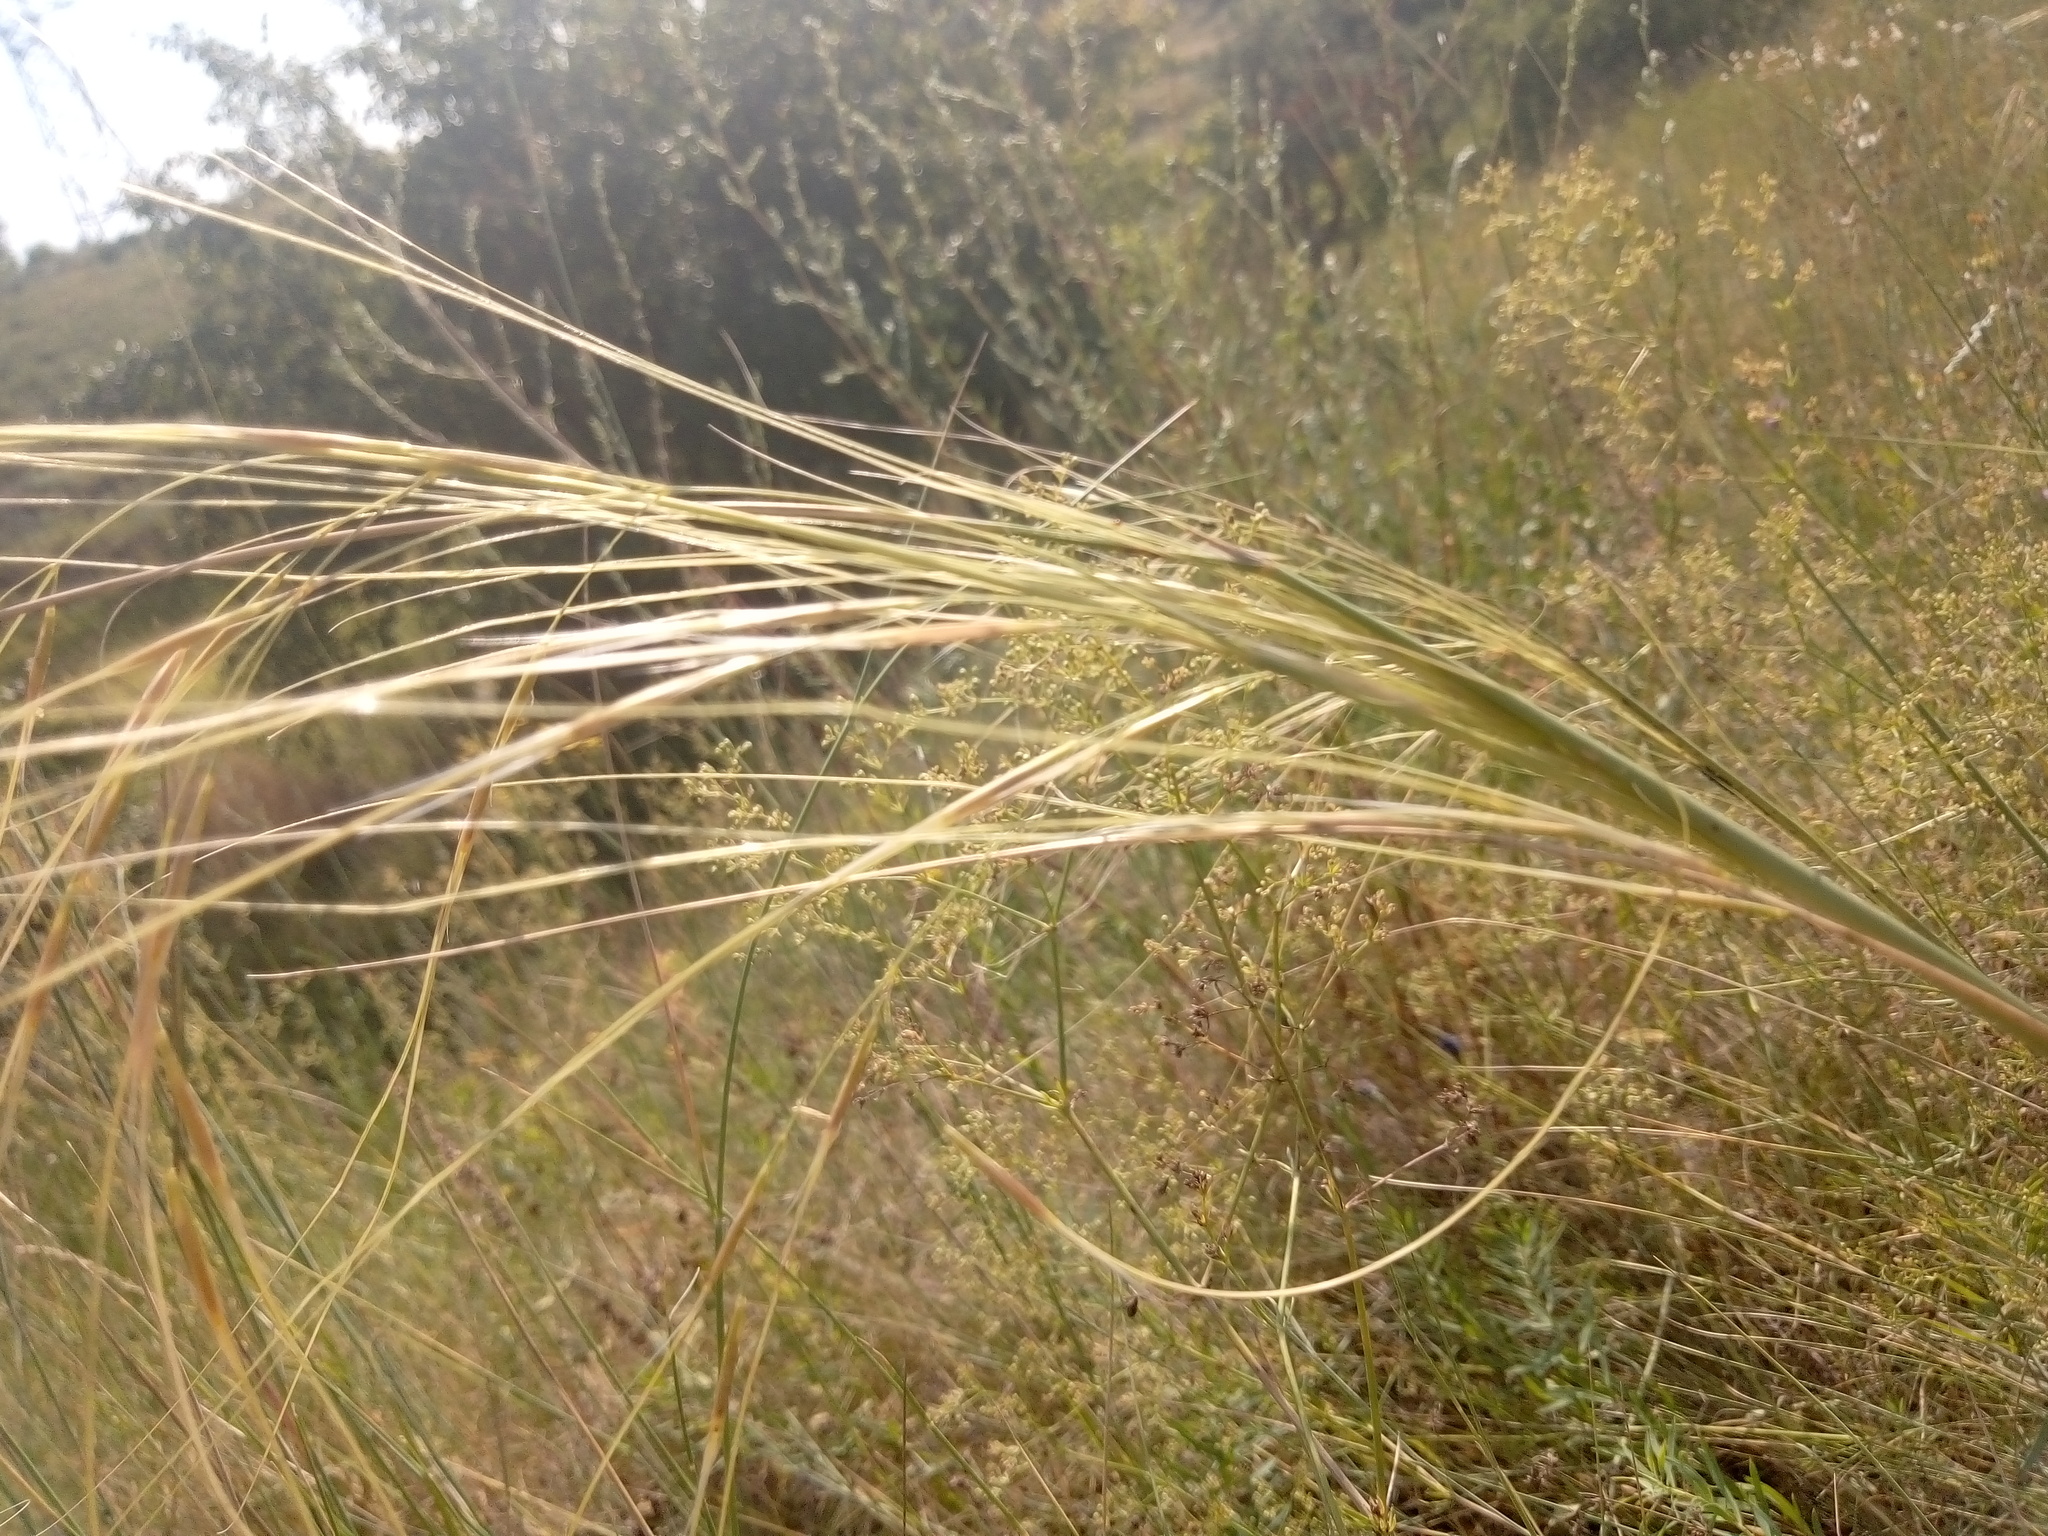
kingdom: Plantae
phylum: Tracheophyta
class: Liliopsida
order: Poales
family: Poaceae
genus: Stipa
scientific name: Stipa capillata
